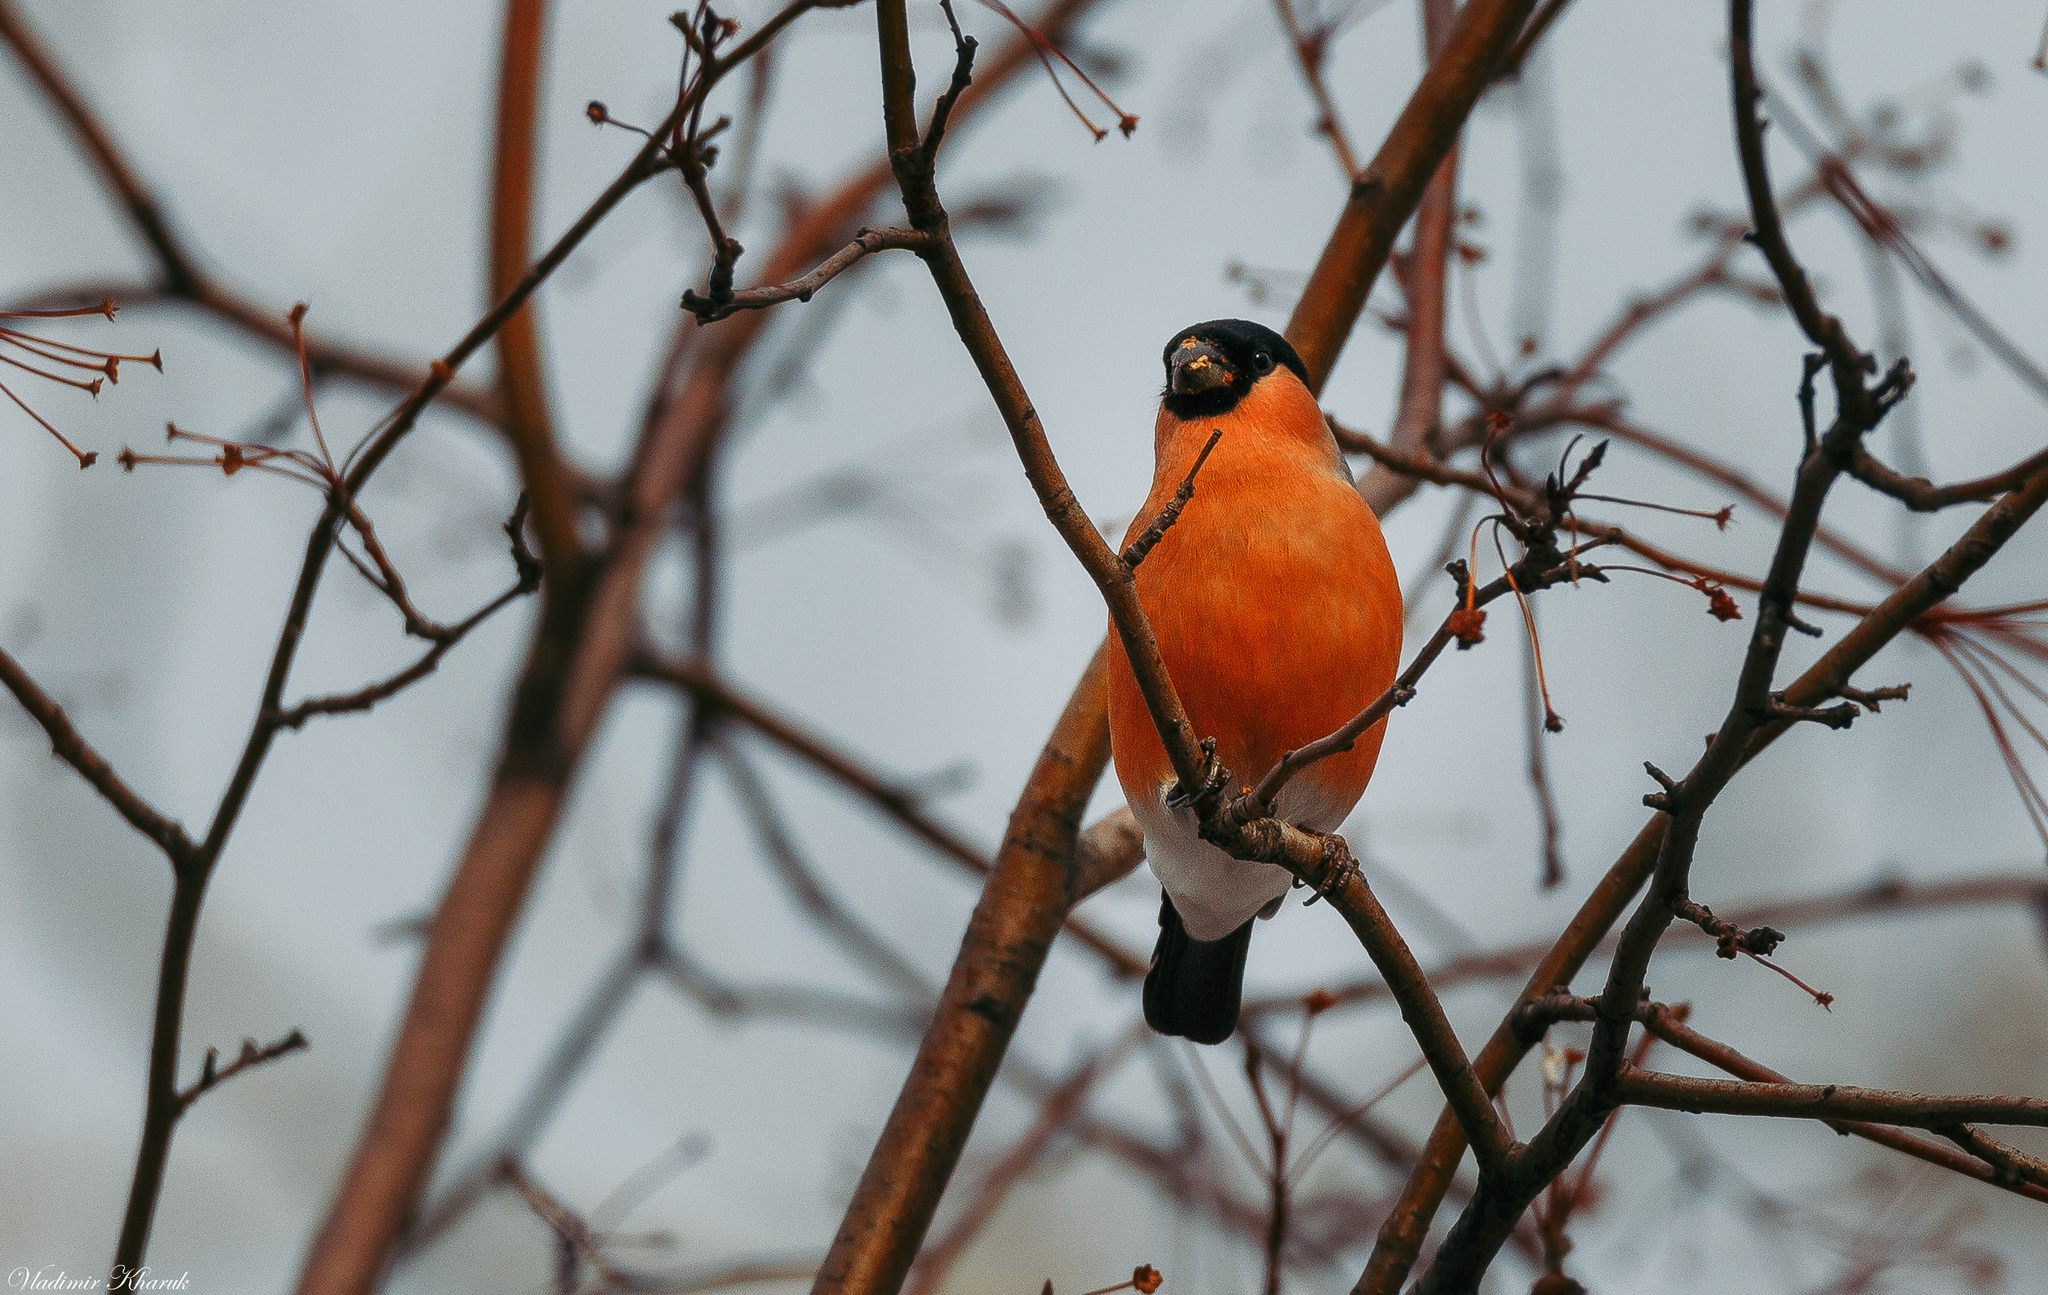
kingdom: Animalia
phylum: Chordata
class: Aves
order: Passeriformes
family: Fringillidae
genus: Pyrrhula
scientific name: Pyrrhula pyrrhula
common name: Eurasian bullfinch
